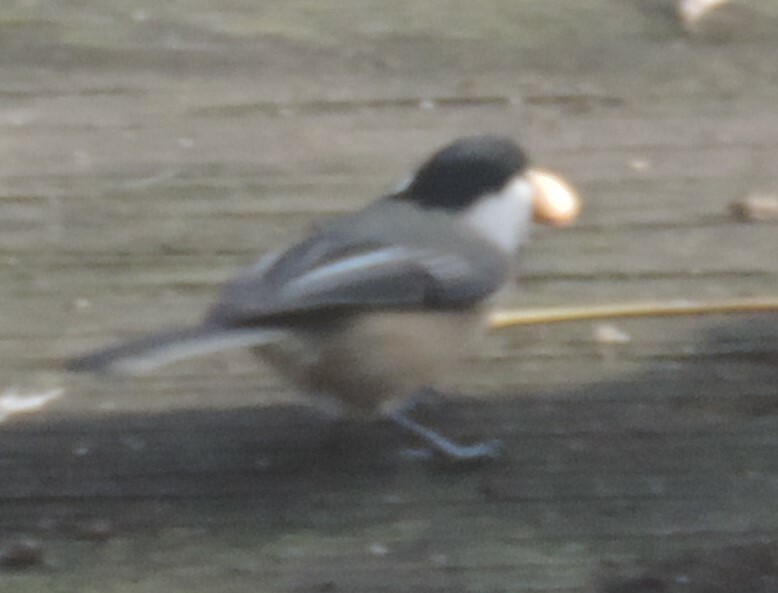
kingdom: Animalia
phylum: Chordata
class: Aves
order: Passeriformes
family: Paridae
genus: Poecile
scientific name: Poecile atricapillus
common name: Black-capped chickadee
